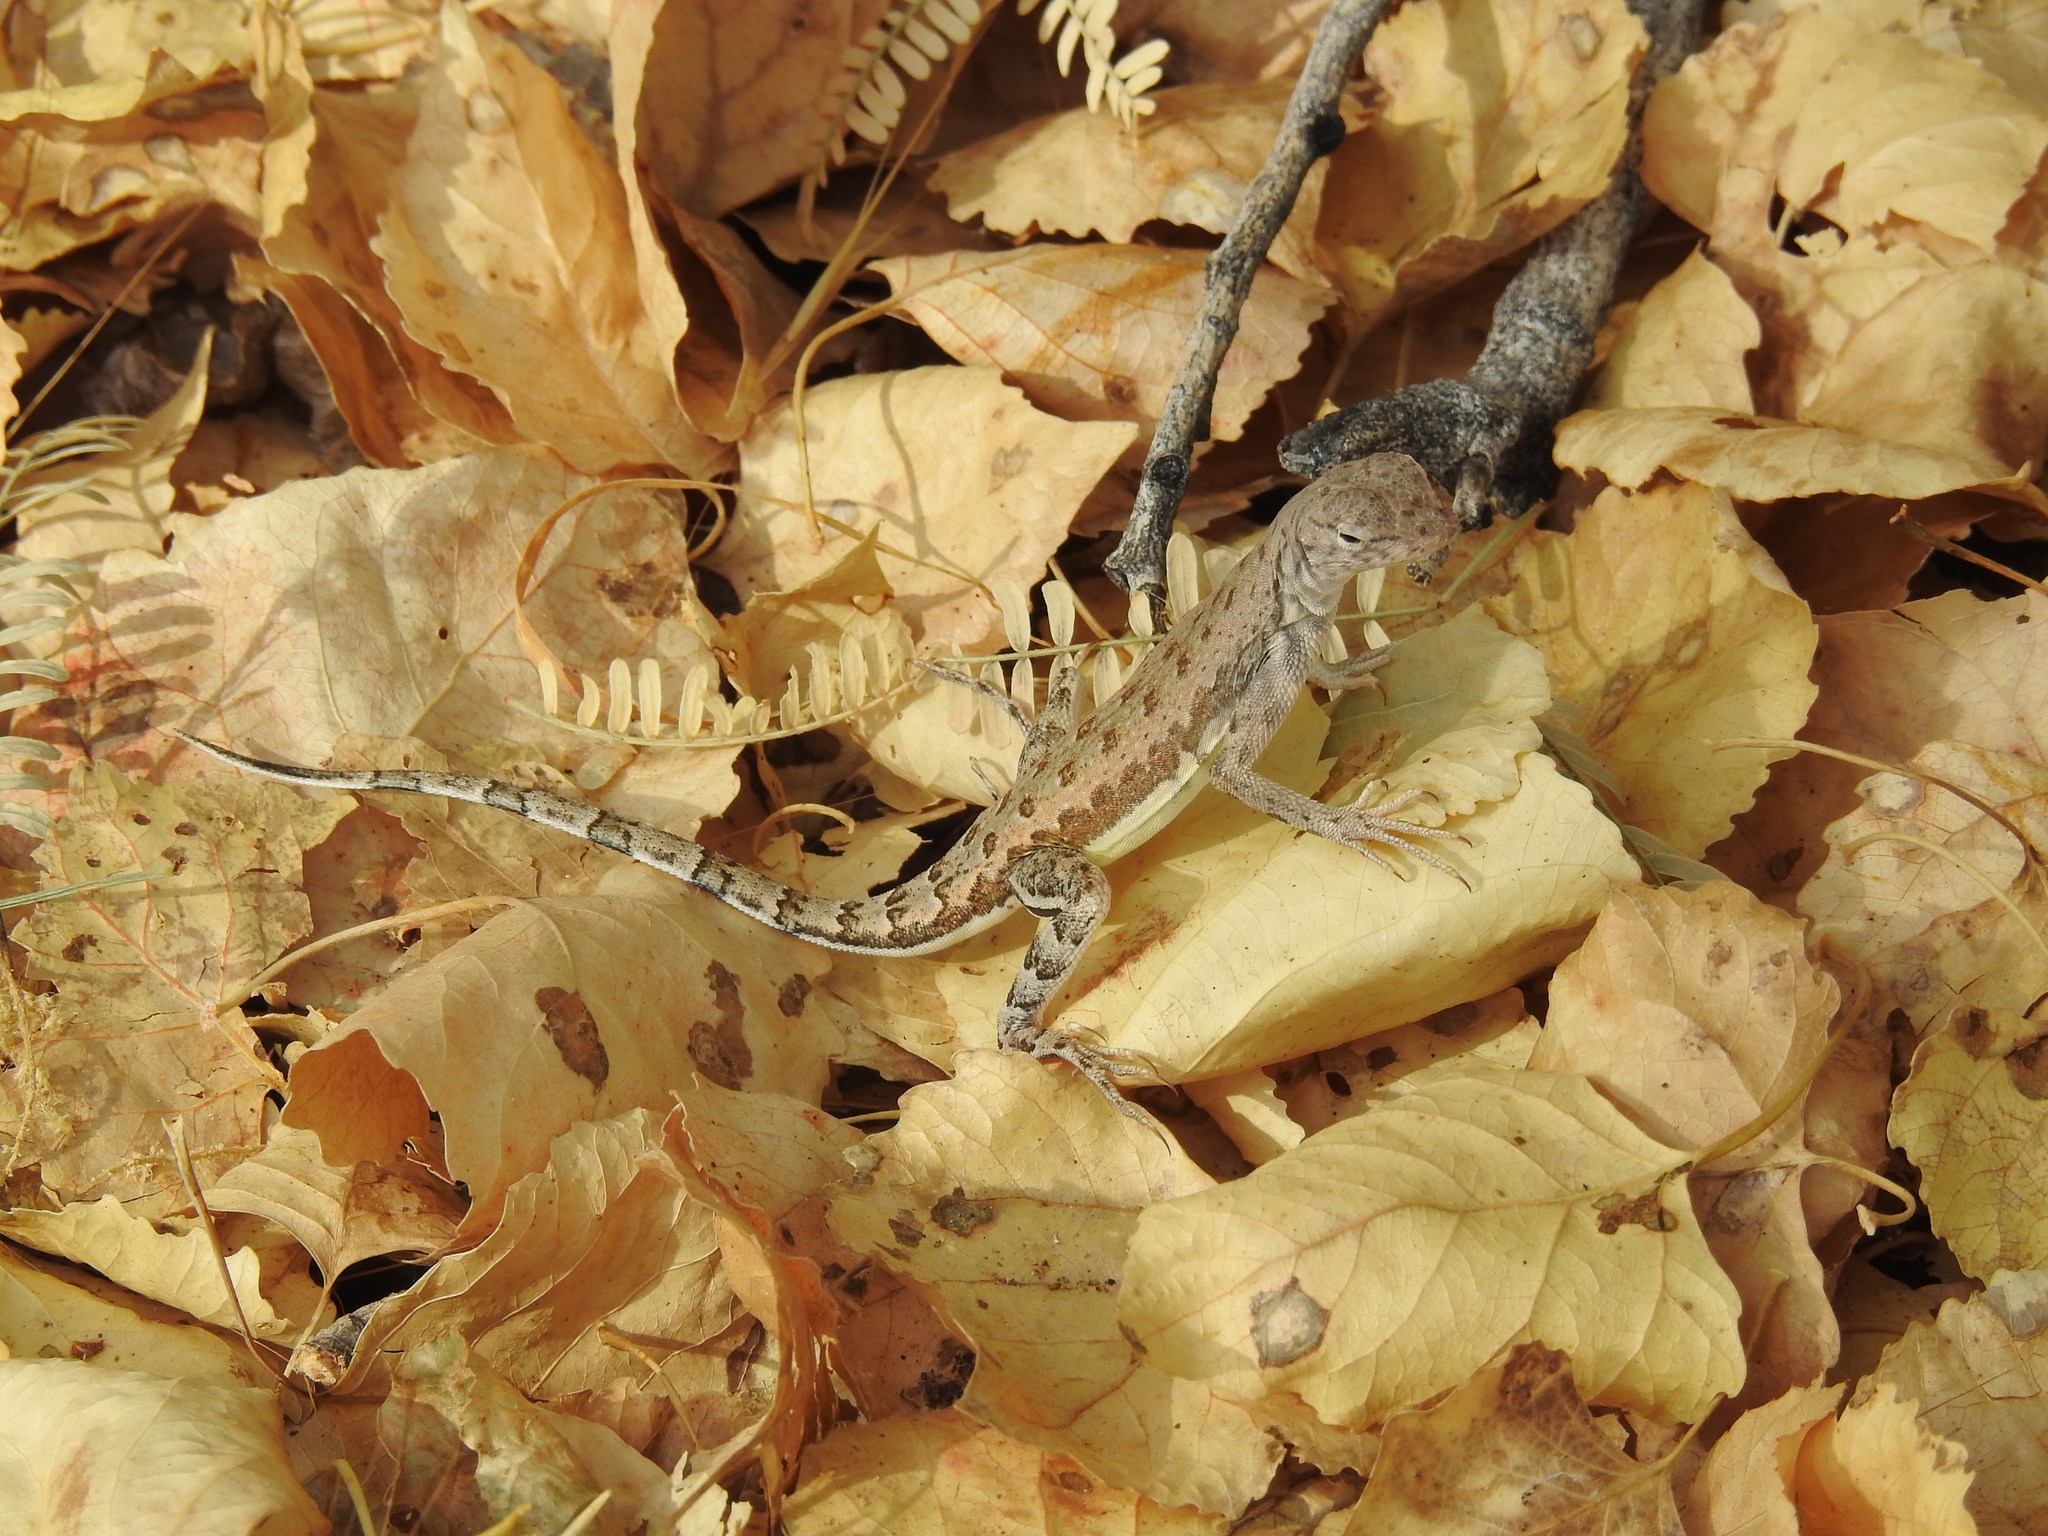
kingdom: Animalia
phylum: Chordata
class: Squamata
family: Phrynosomatidae
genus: Callisaurus
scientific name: Callisaurus draconoides
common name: Zebra-tailed lizard
